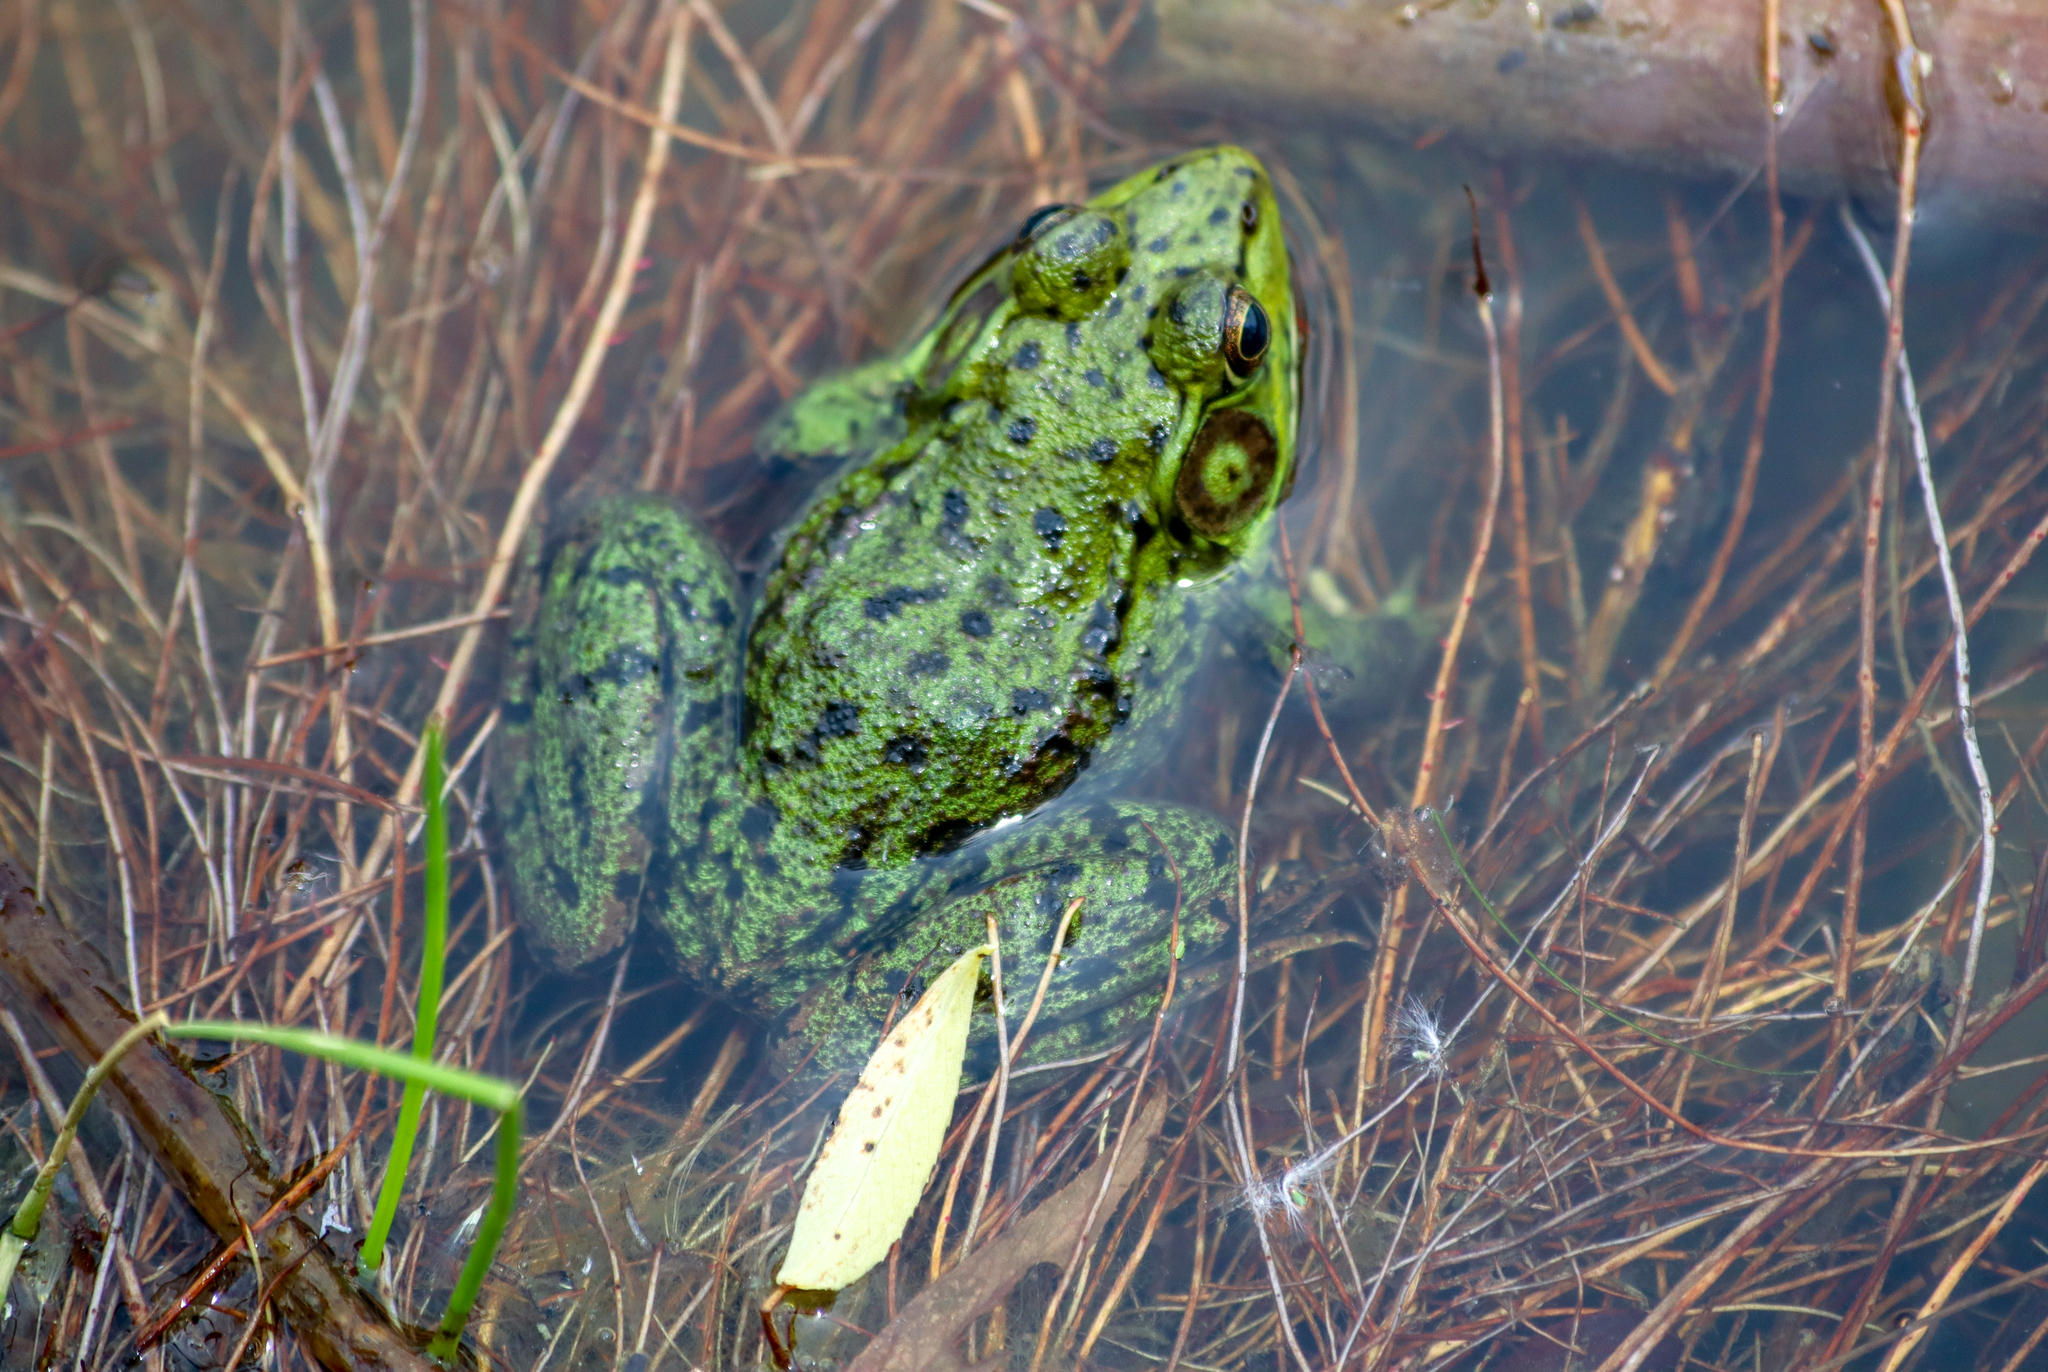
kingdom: Animalia
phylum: Chordata
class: Amphibia
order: Anura
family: Ranidae
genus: Lithobates
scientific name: Lithobates clamitans
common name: Green frog
